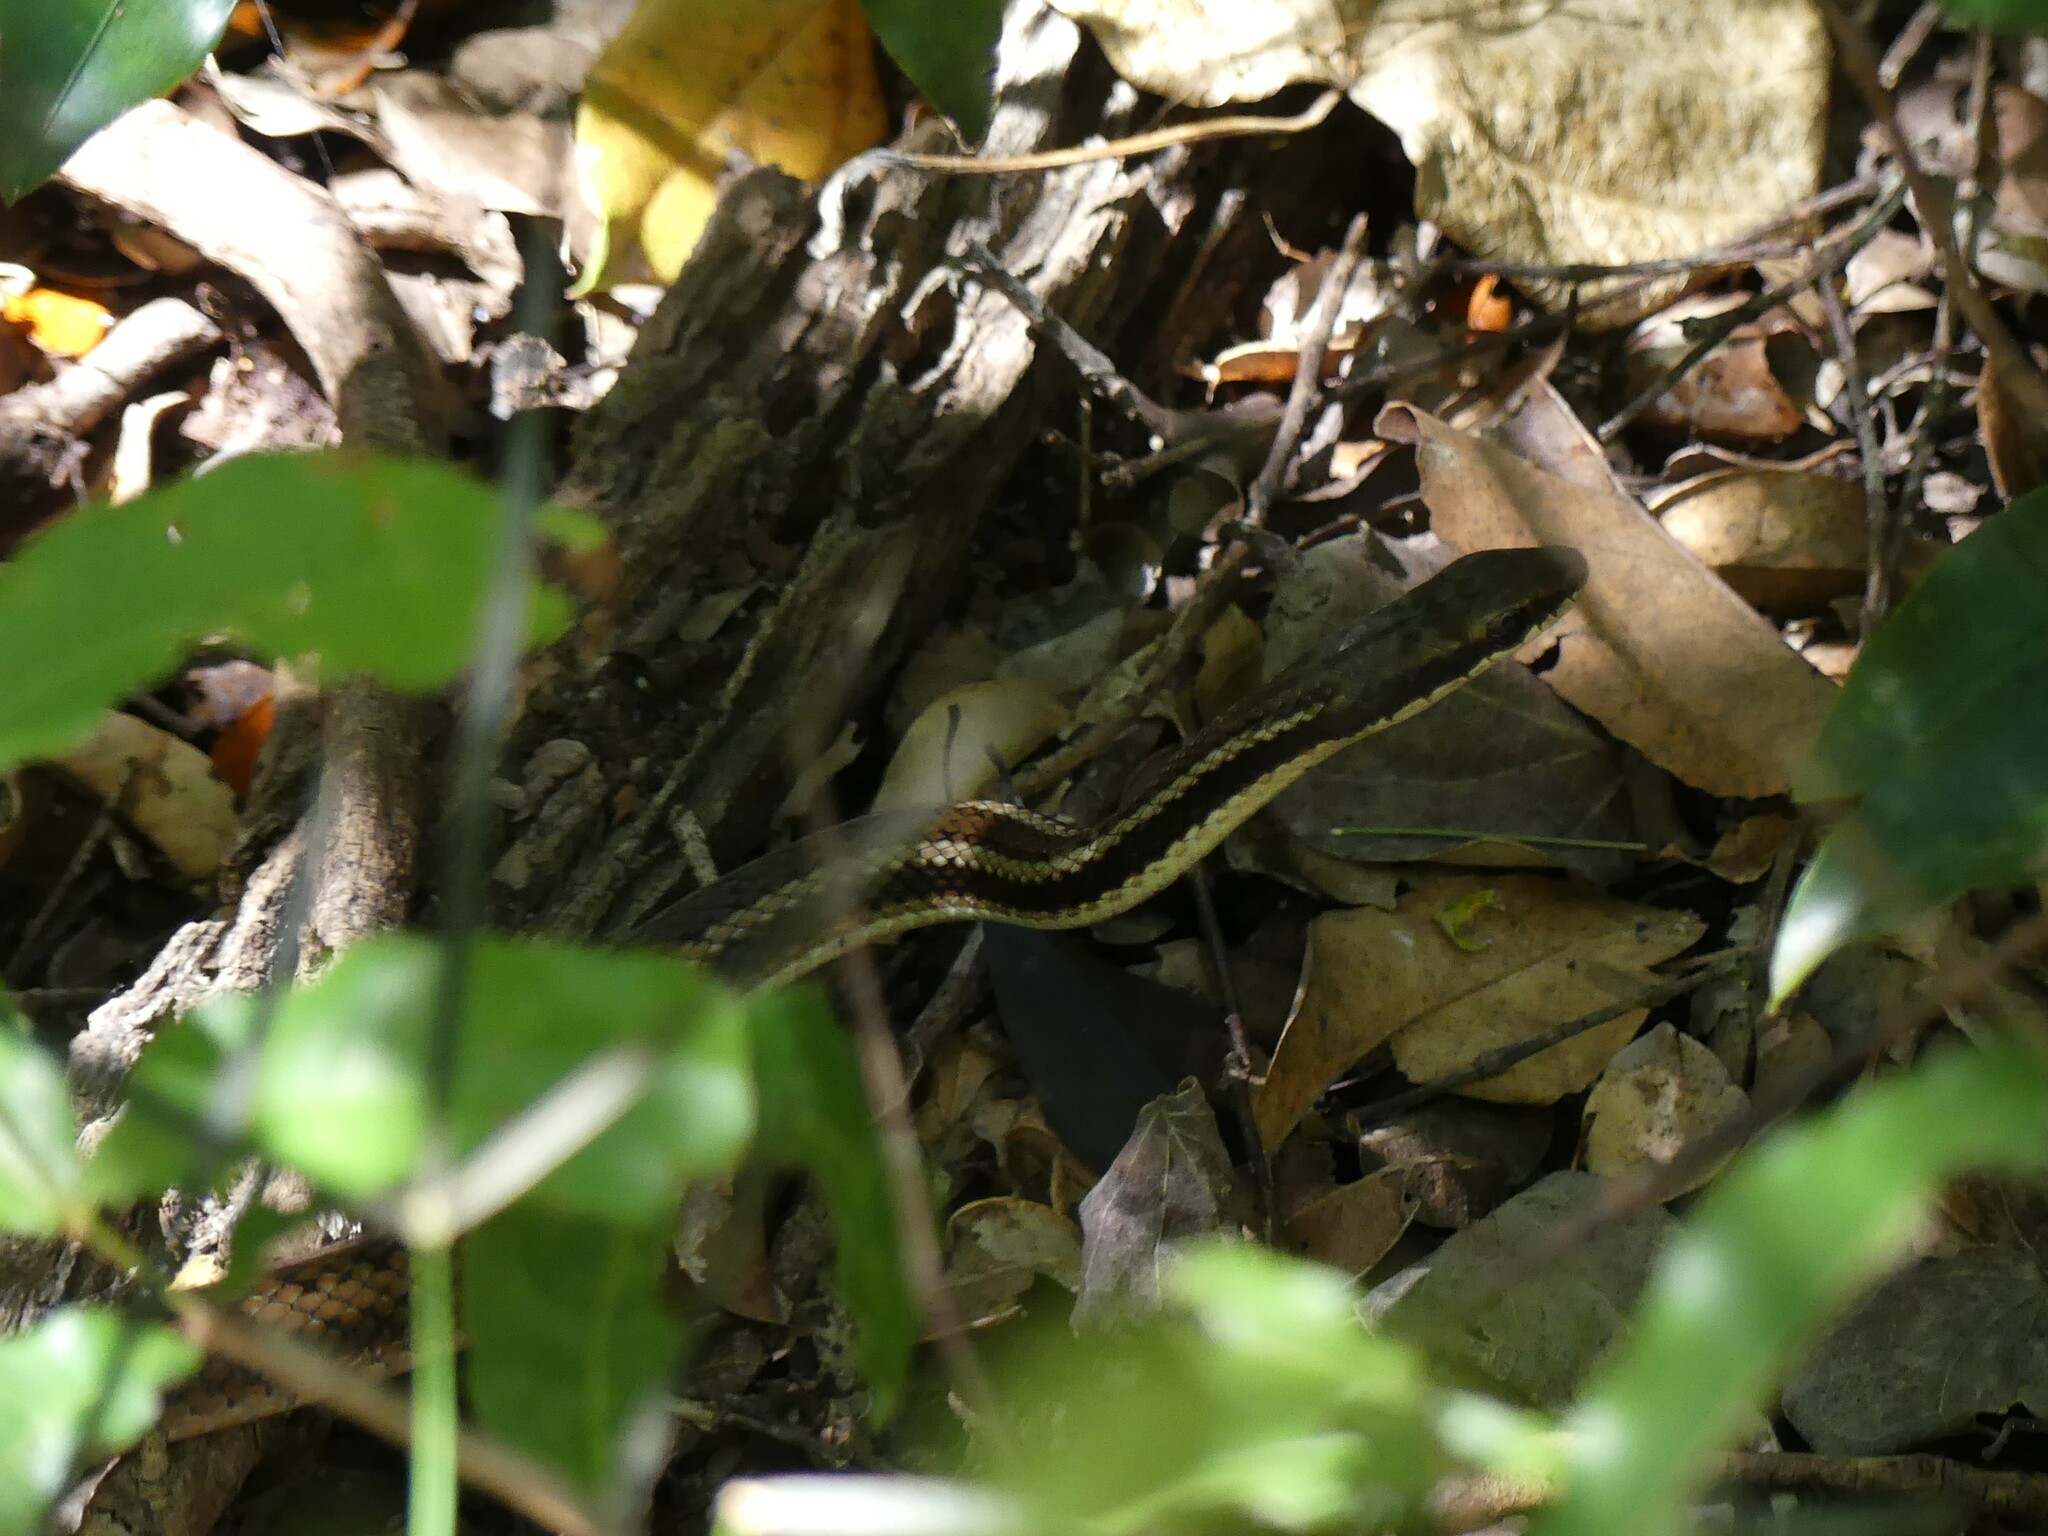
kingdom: Animalia
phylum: Chordata
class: Squamata
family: Pseudoxyrhophiidae
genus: Dromicodryas
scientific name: Dromicodryas bernieri
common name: Bernier's striped snake
